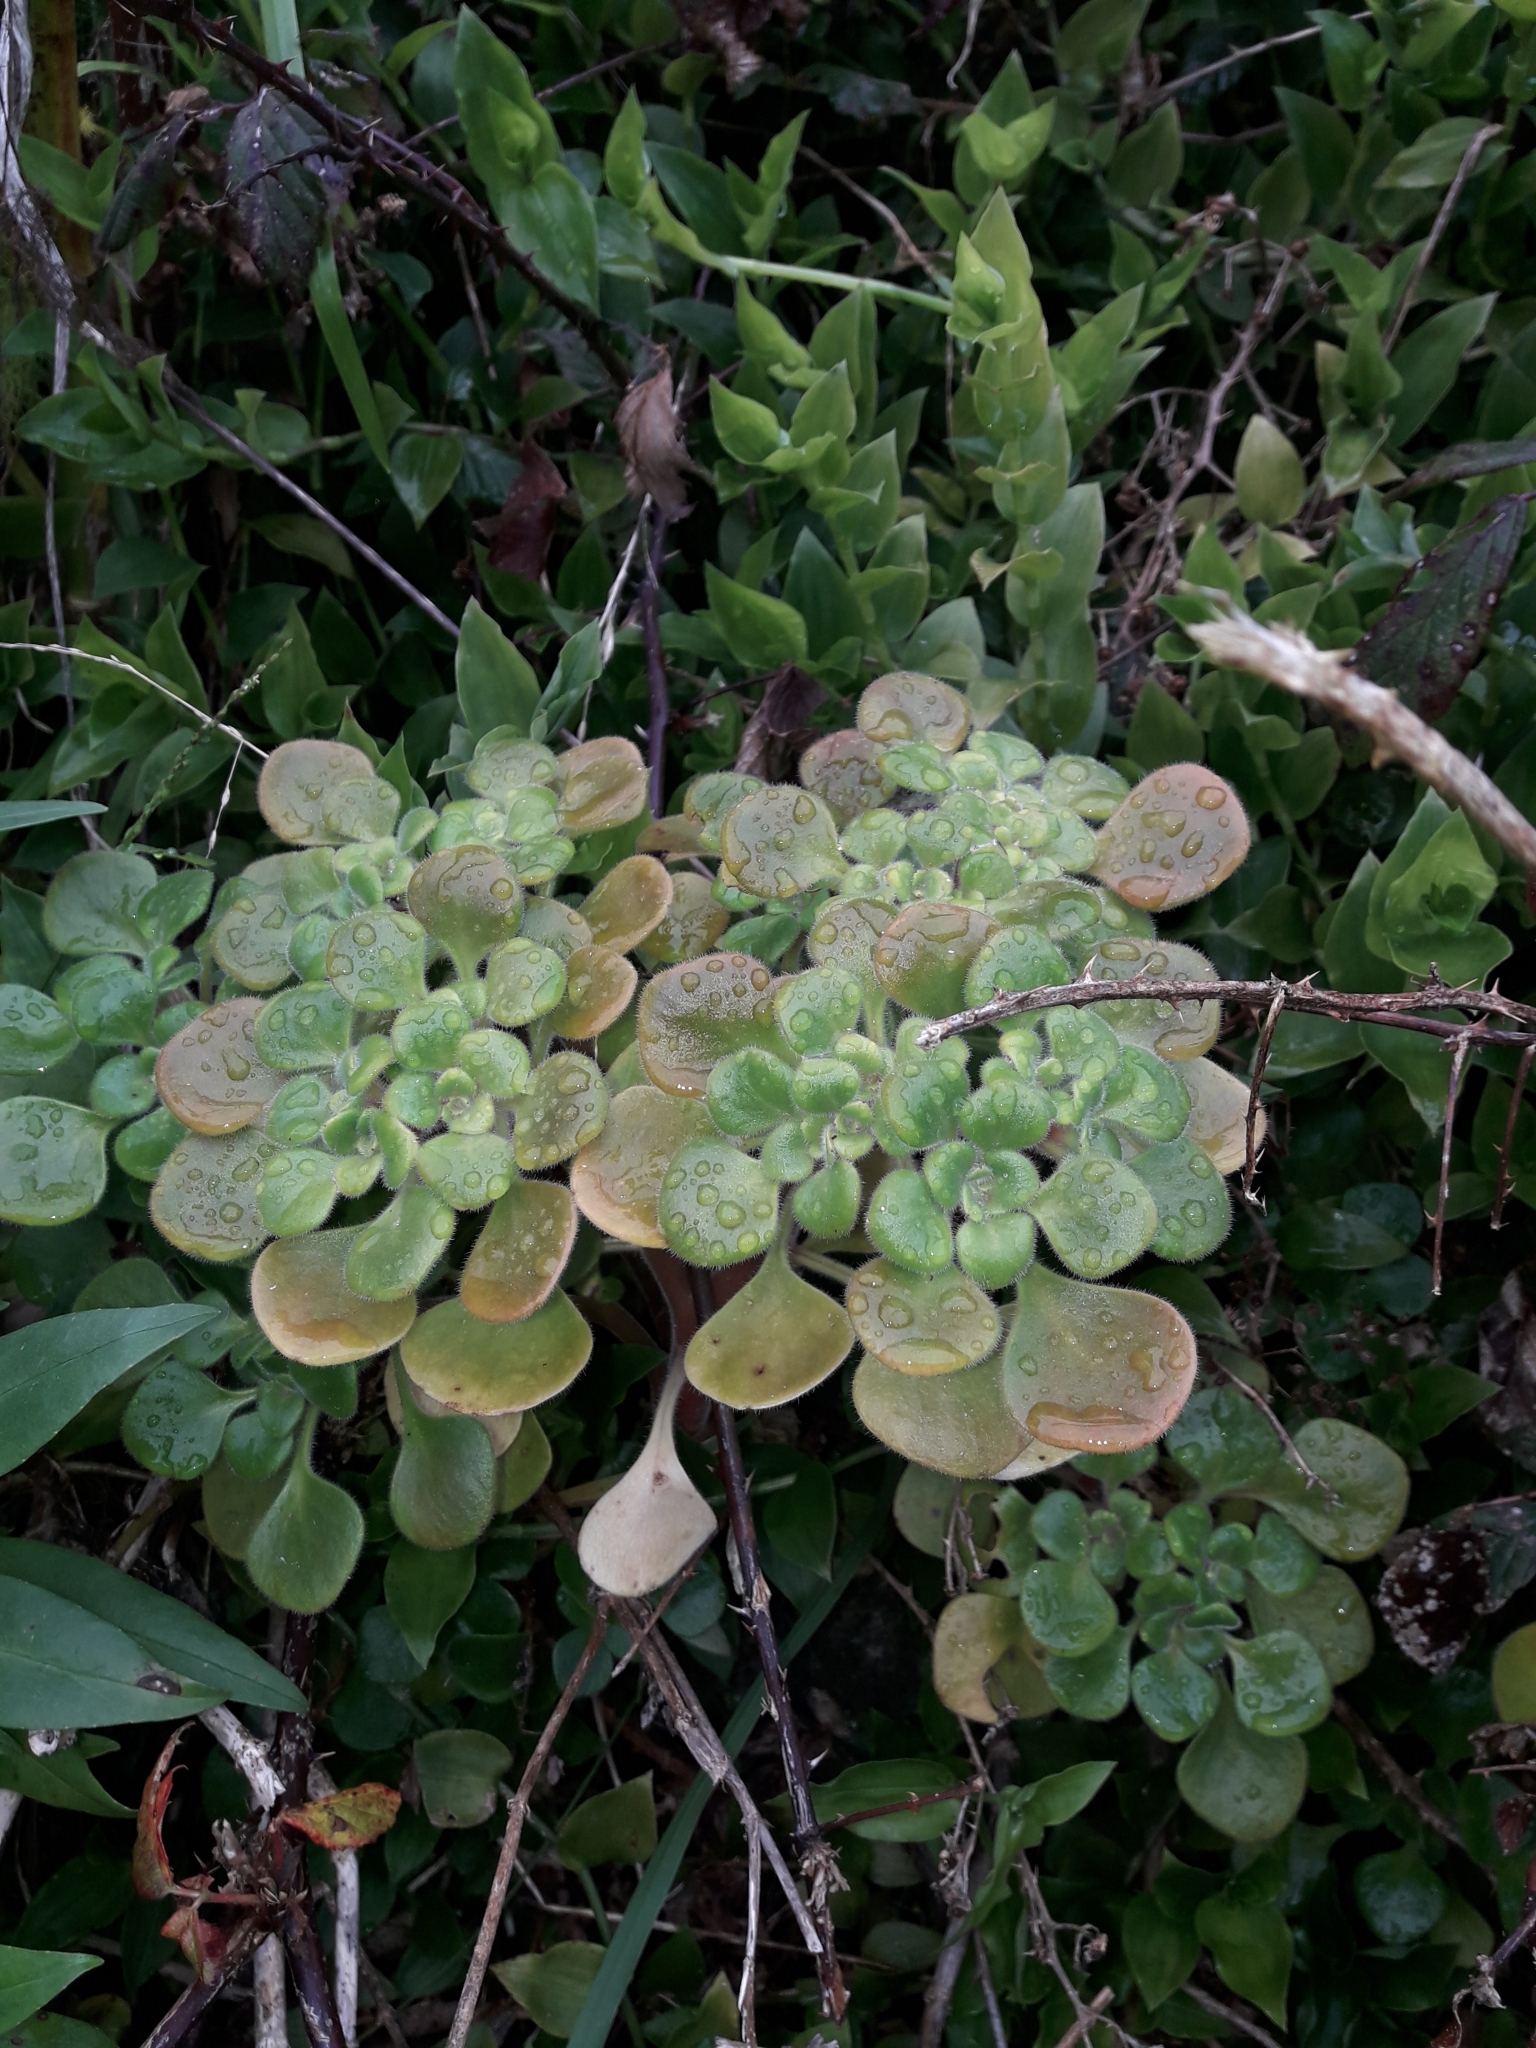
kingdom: Plantae
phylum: Tracheophyta
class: Magnoliopsida
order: Saxifragales
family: Crassulaceae
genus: Aichryson
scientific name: Aichryson laxum
